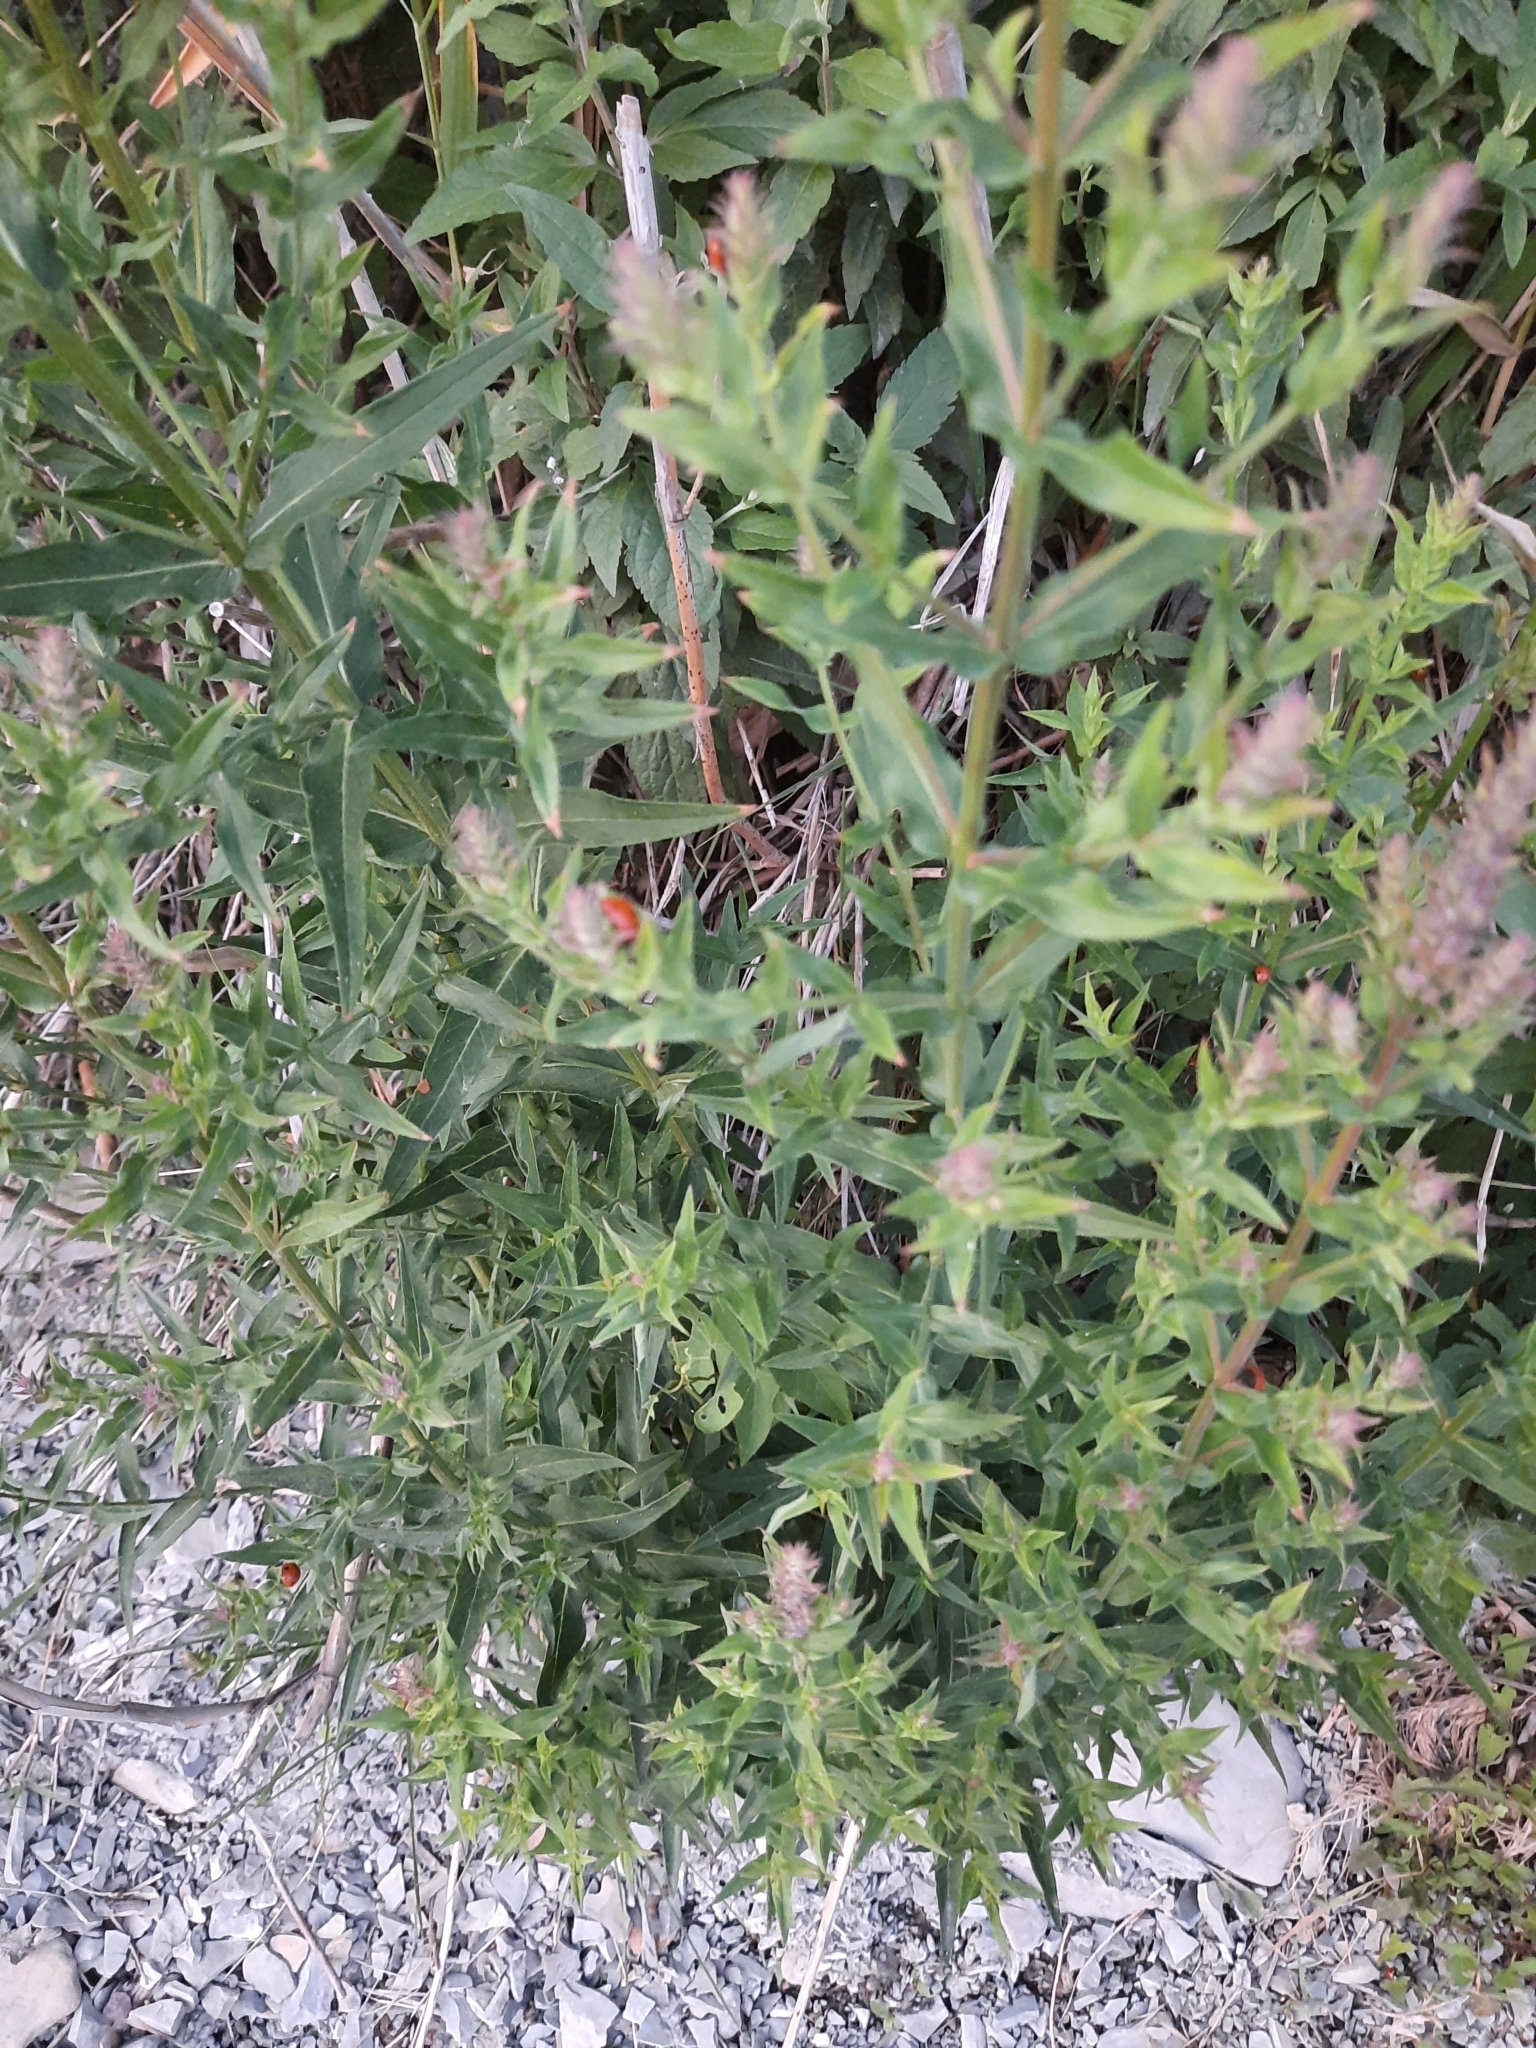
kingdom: Plantae
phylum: Tracheophyta
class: Magnoliopsida
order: Myrtales
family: Lythraceae
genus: Lythrum
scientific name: Lythrum salicaria
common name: Purple loosestrife
